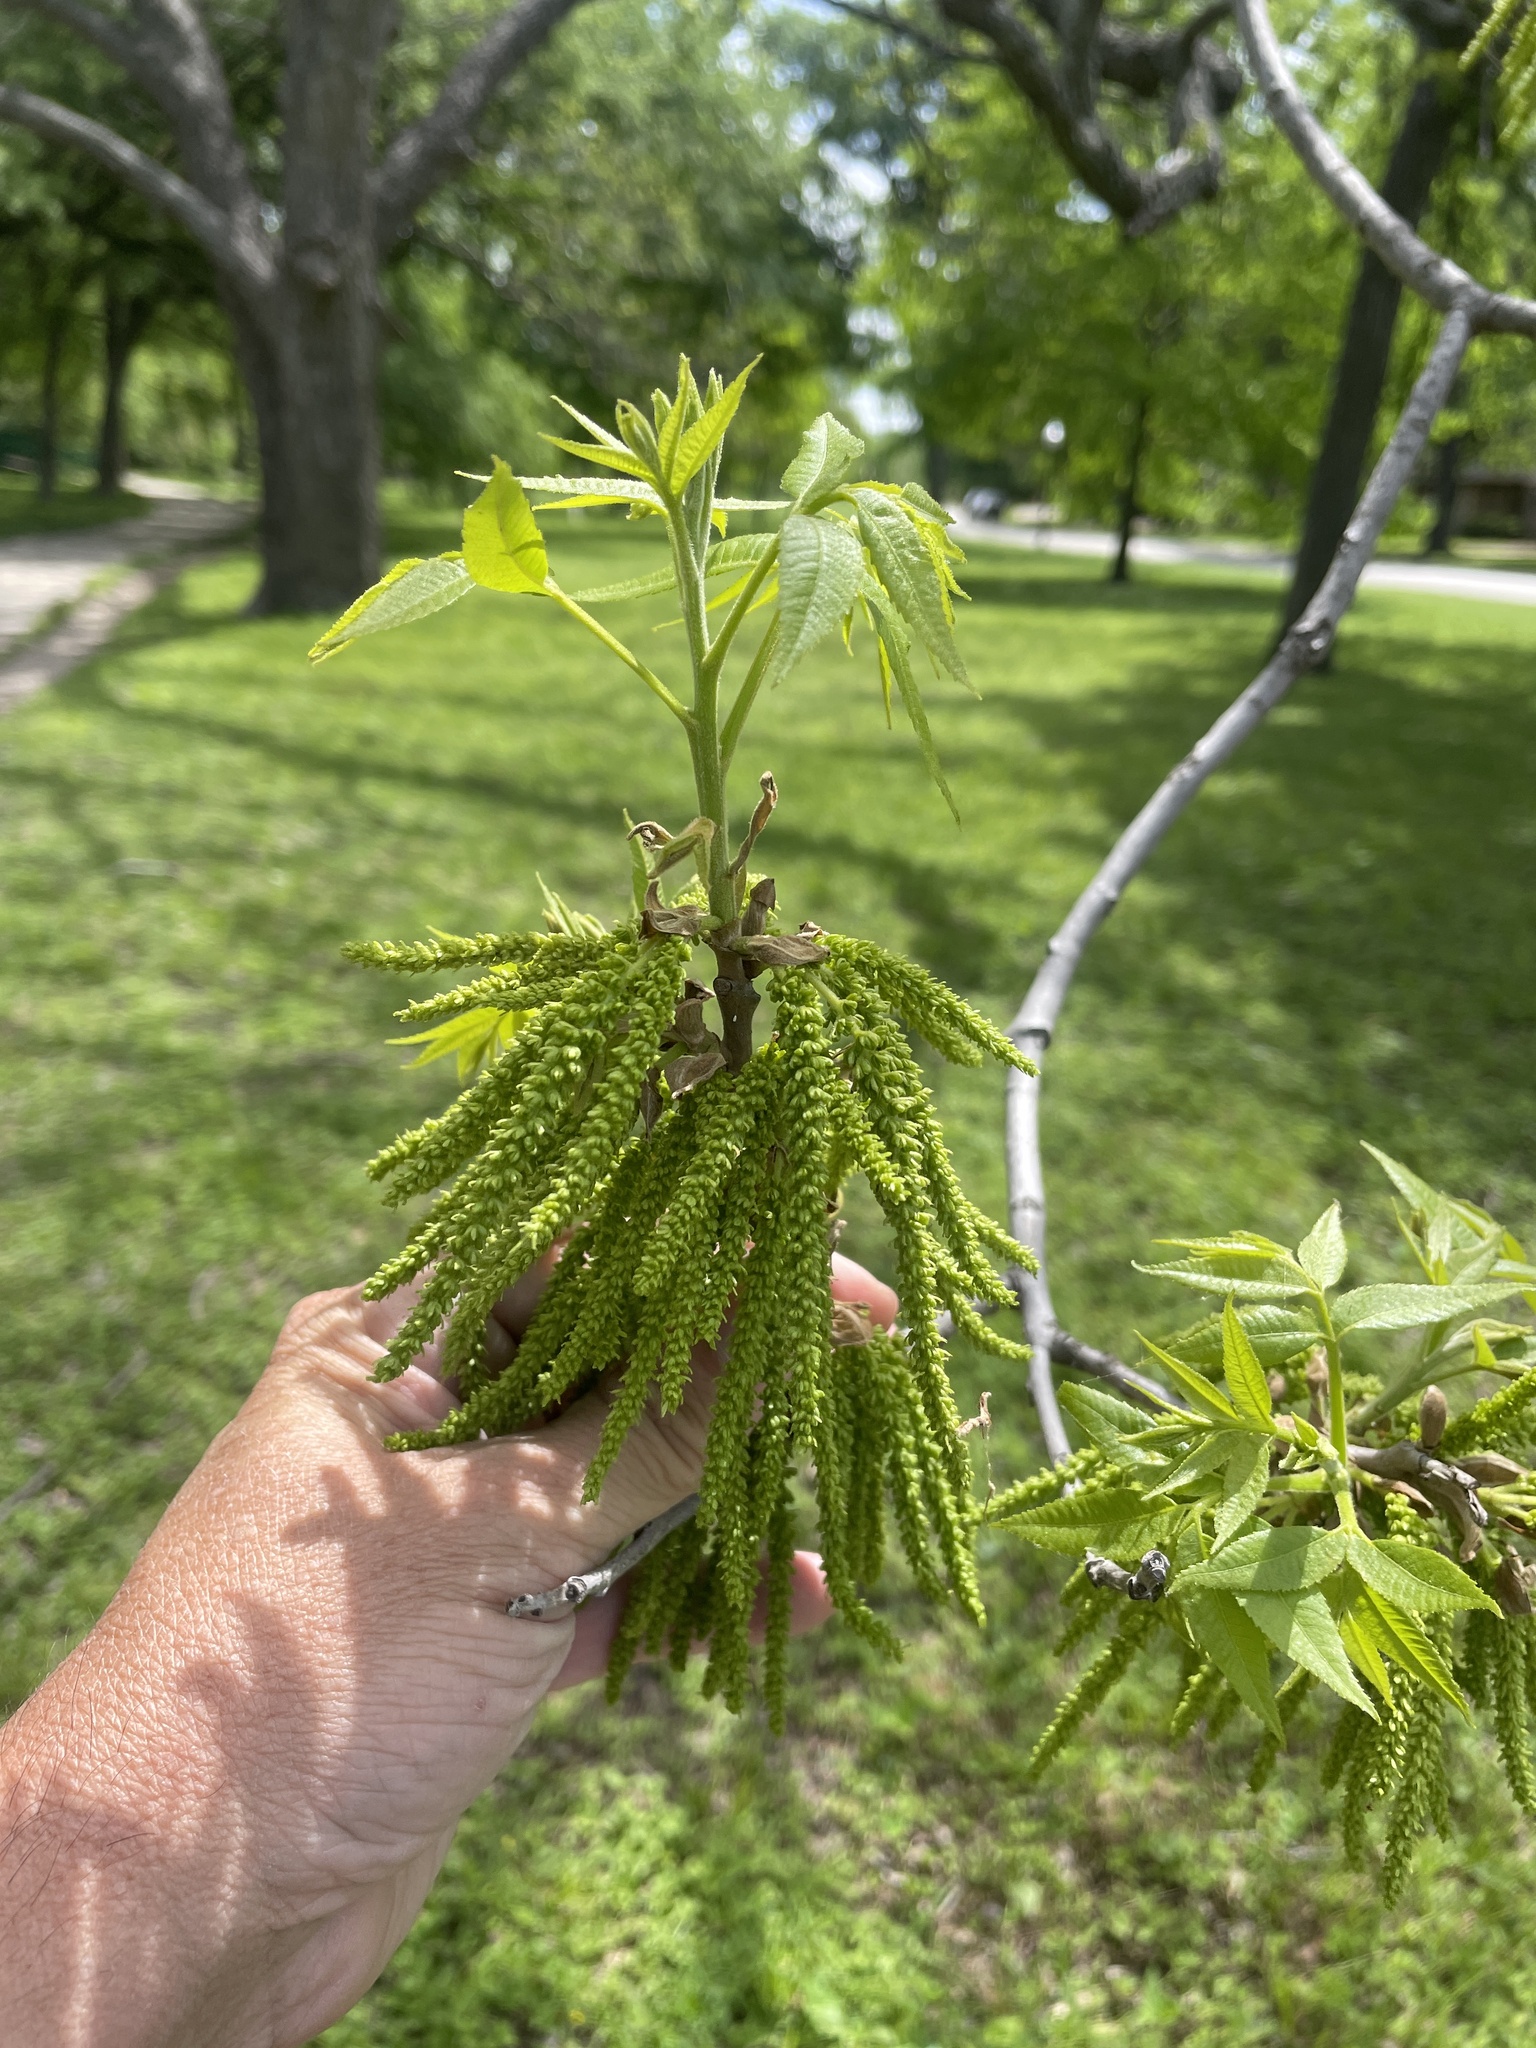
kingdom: Plantae
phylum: Tracheophyta
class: Magnoliopsida
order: Fagales
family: Juglandaceae
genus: Carya
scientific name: Carya illinoinensis
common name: Pecan
